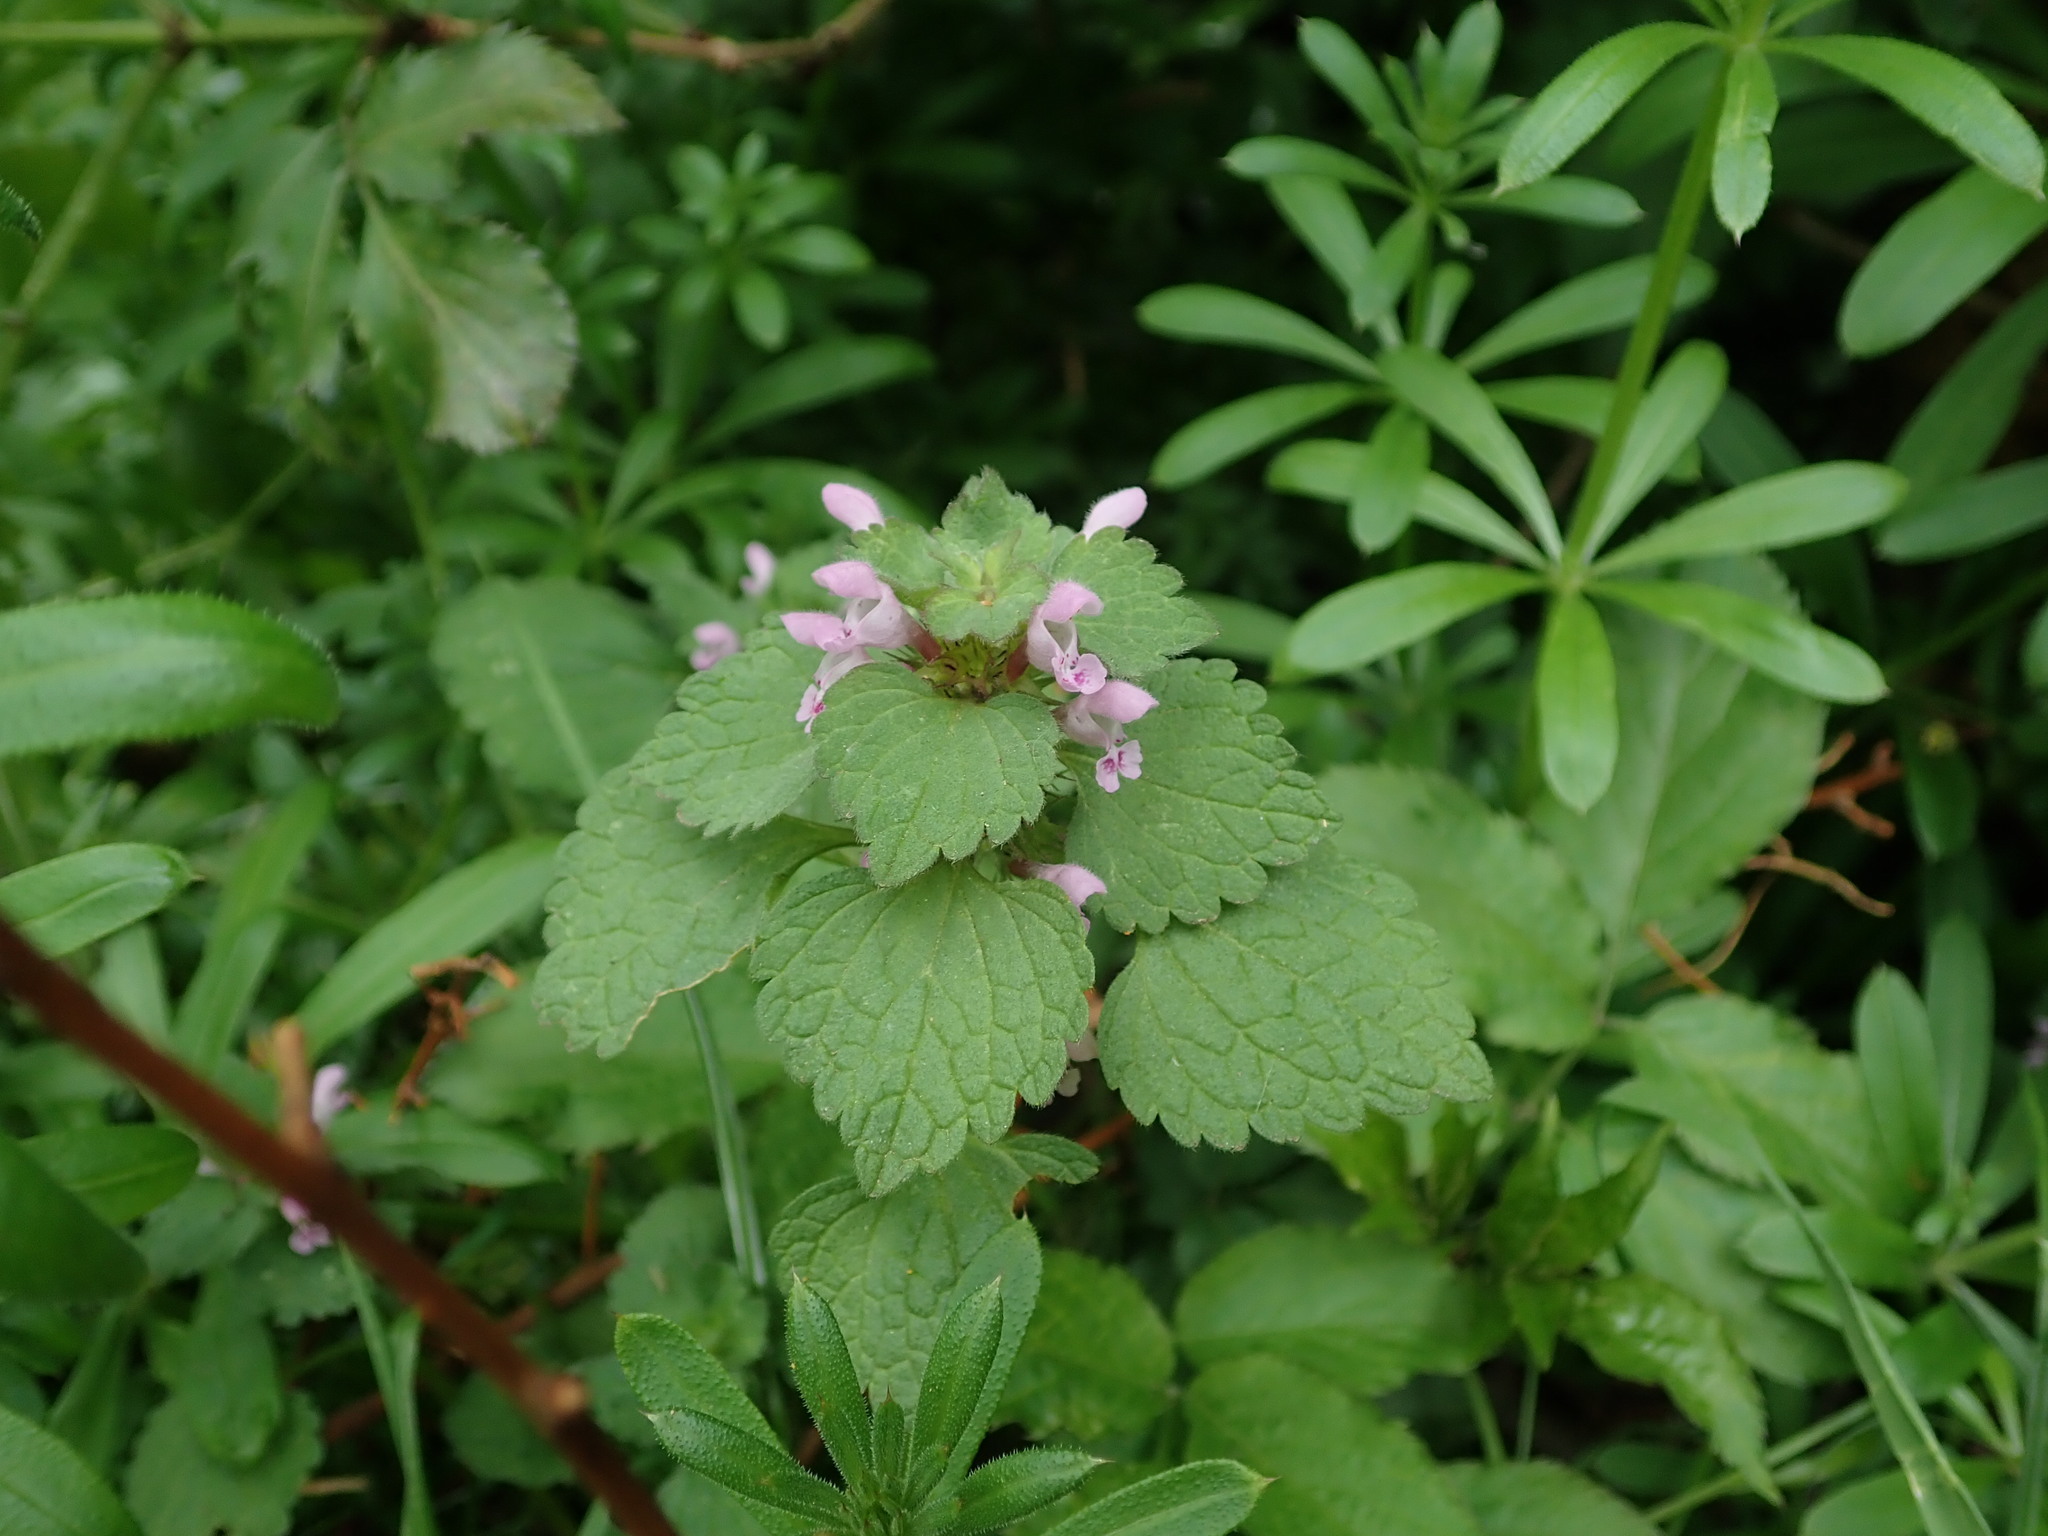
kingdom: Plantae
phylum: Tracheophyta
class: Magnoliopsida
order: Lamiales
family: Lamiaceae
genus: Lamium
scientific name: Lamium purpureum
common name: Red dead-nettle
